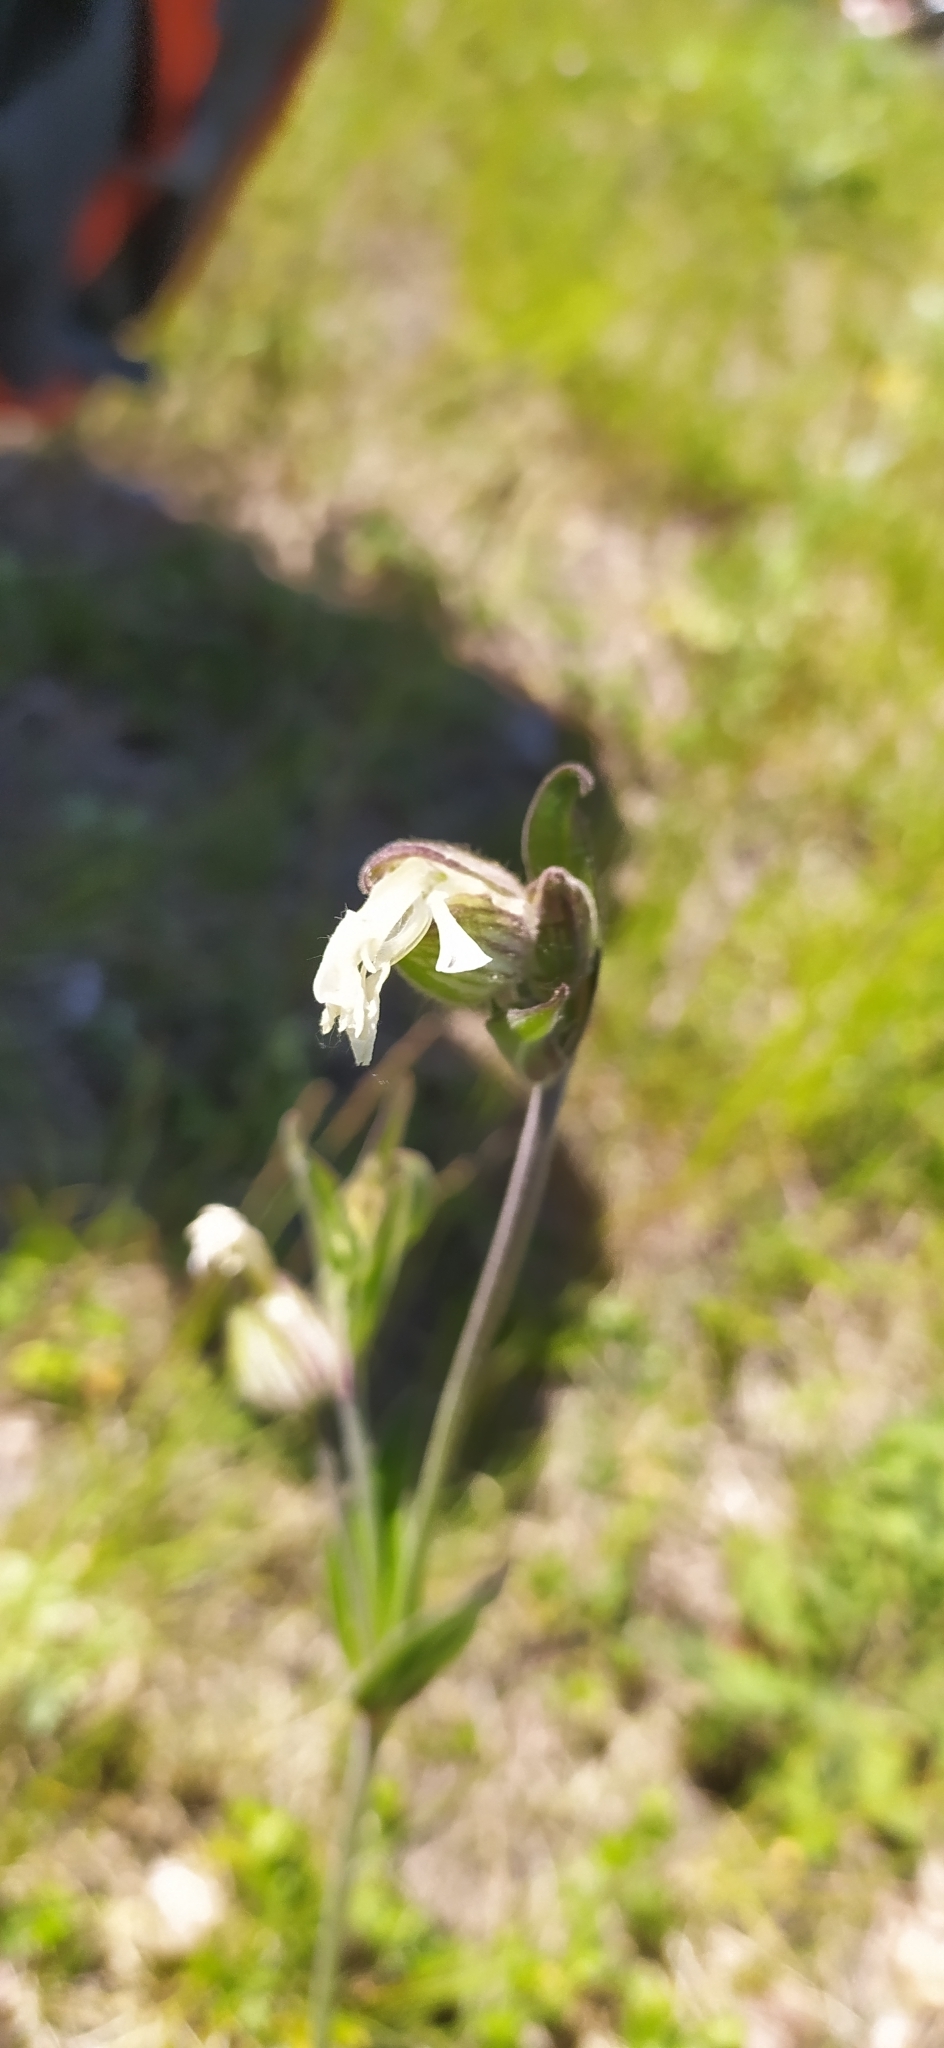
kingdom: Plantae
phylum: Tracheophyta
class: Magnoliopsida
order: Caryophyllales
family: Caryophyllaceae
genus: Silene
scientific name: Silene latifolia
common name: White campion
